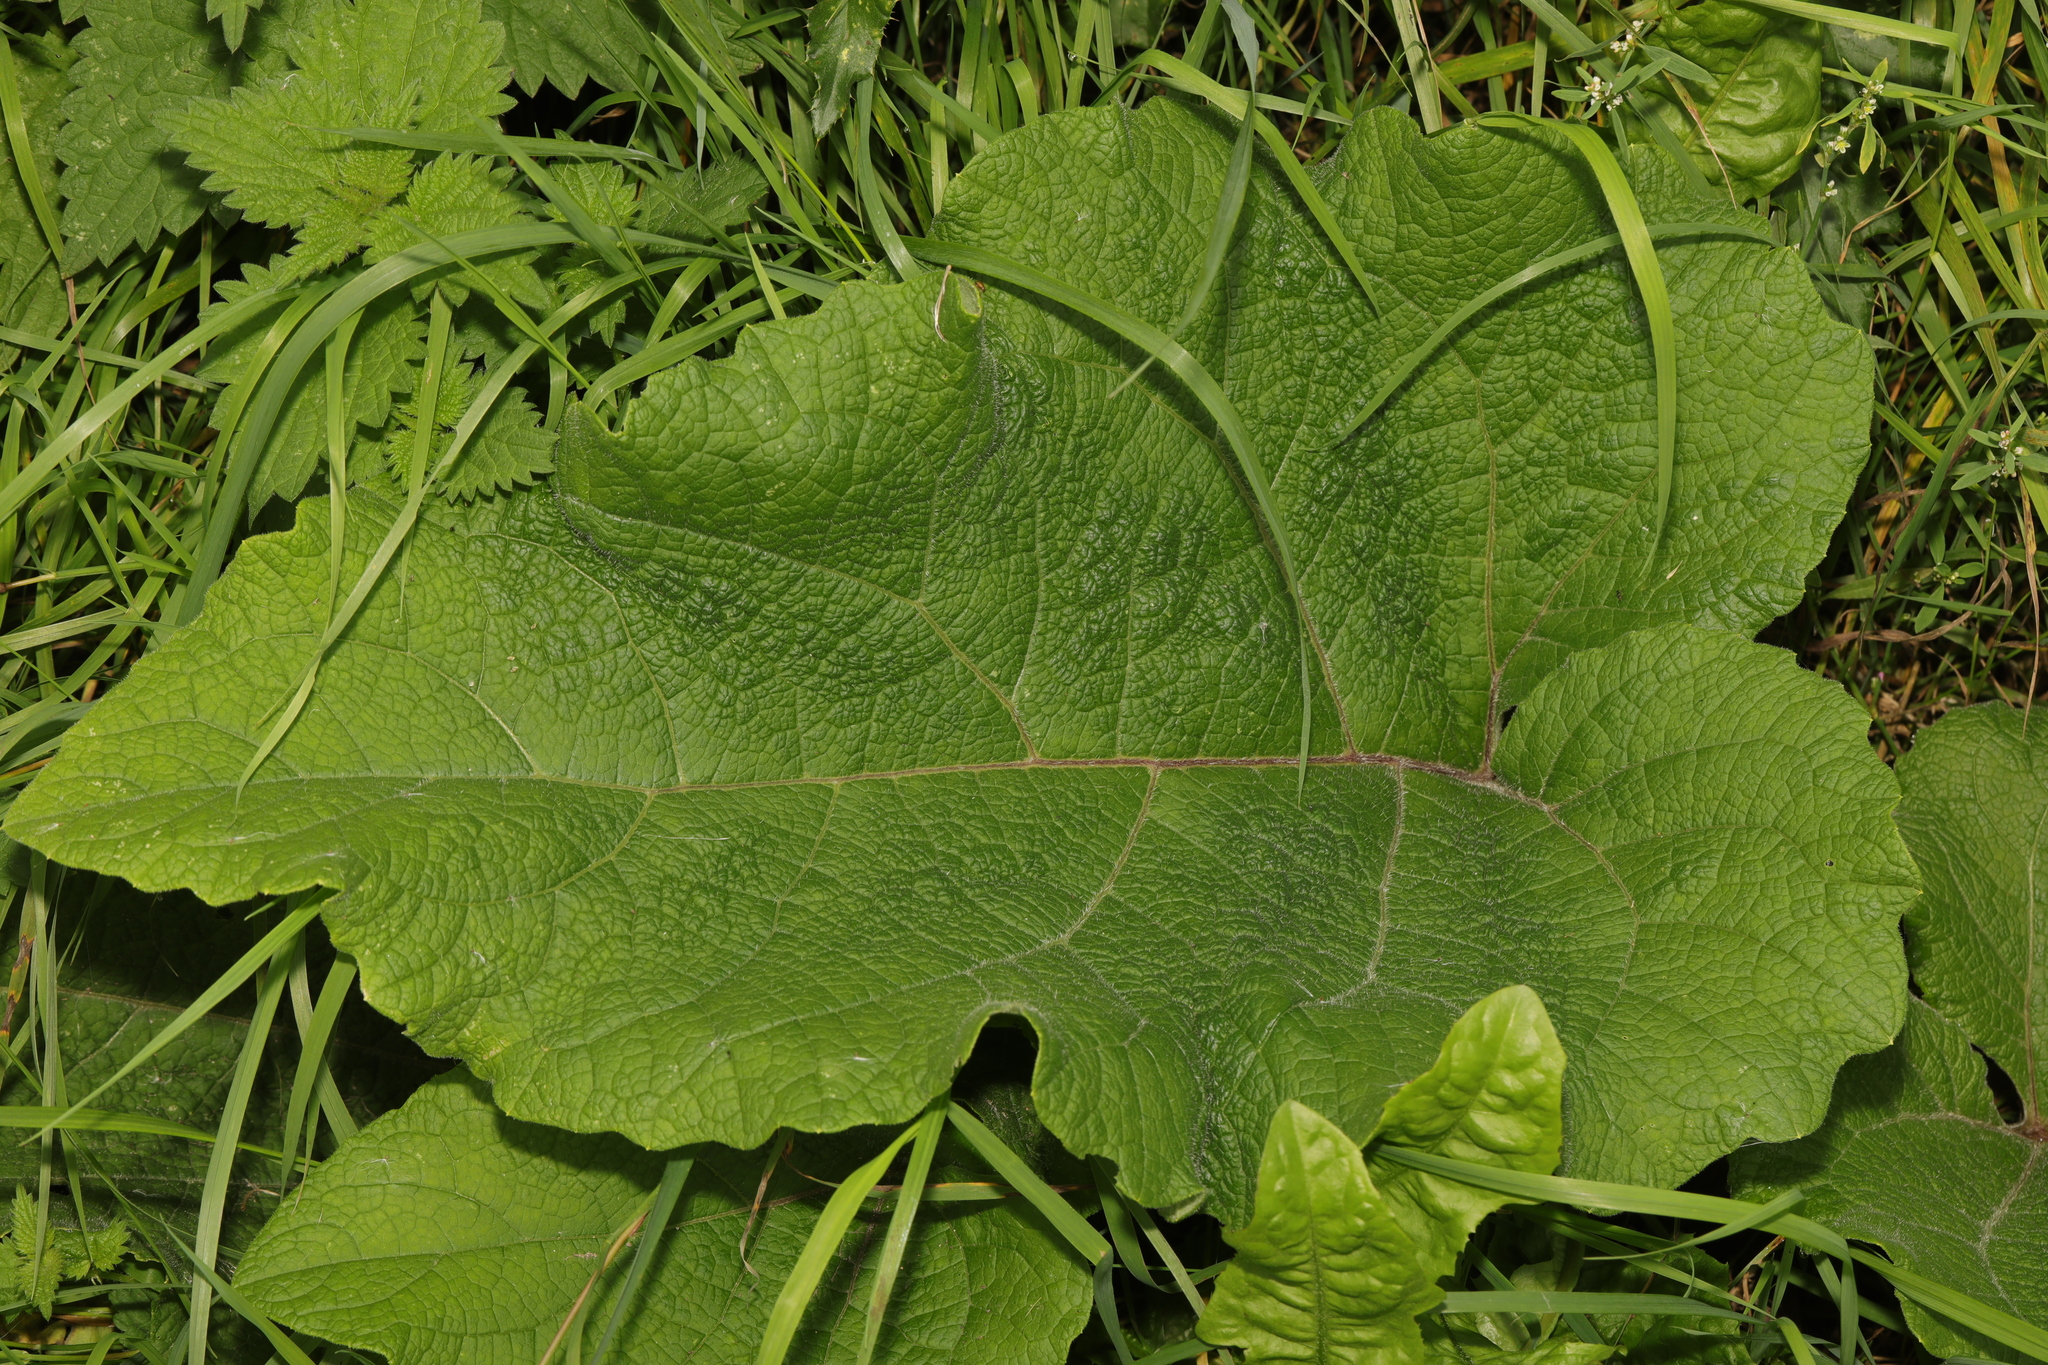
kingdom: Plantae
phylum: Tracheophyta
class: Magnoliopsida
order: Asterales
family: Asteraceae
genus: Arctium
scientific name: Arctium minus
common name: Lesser burdock
